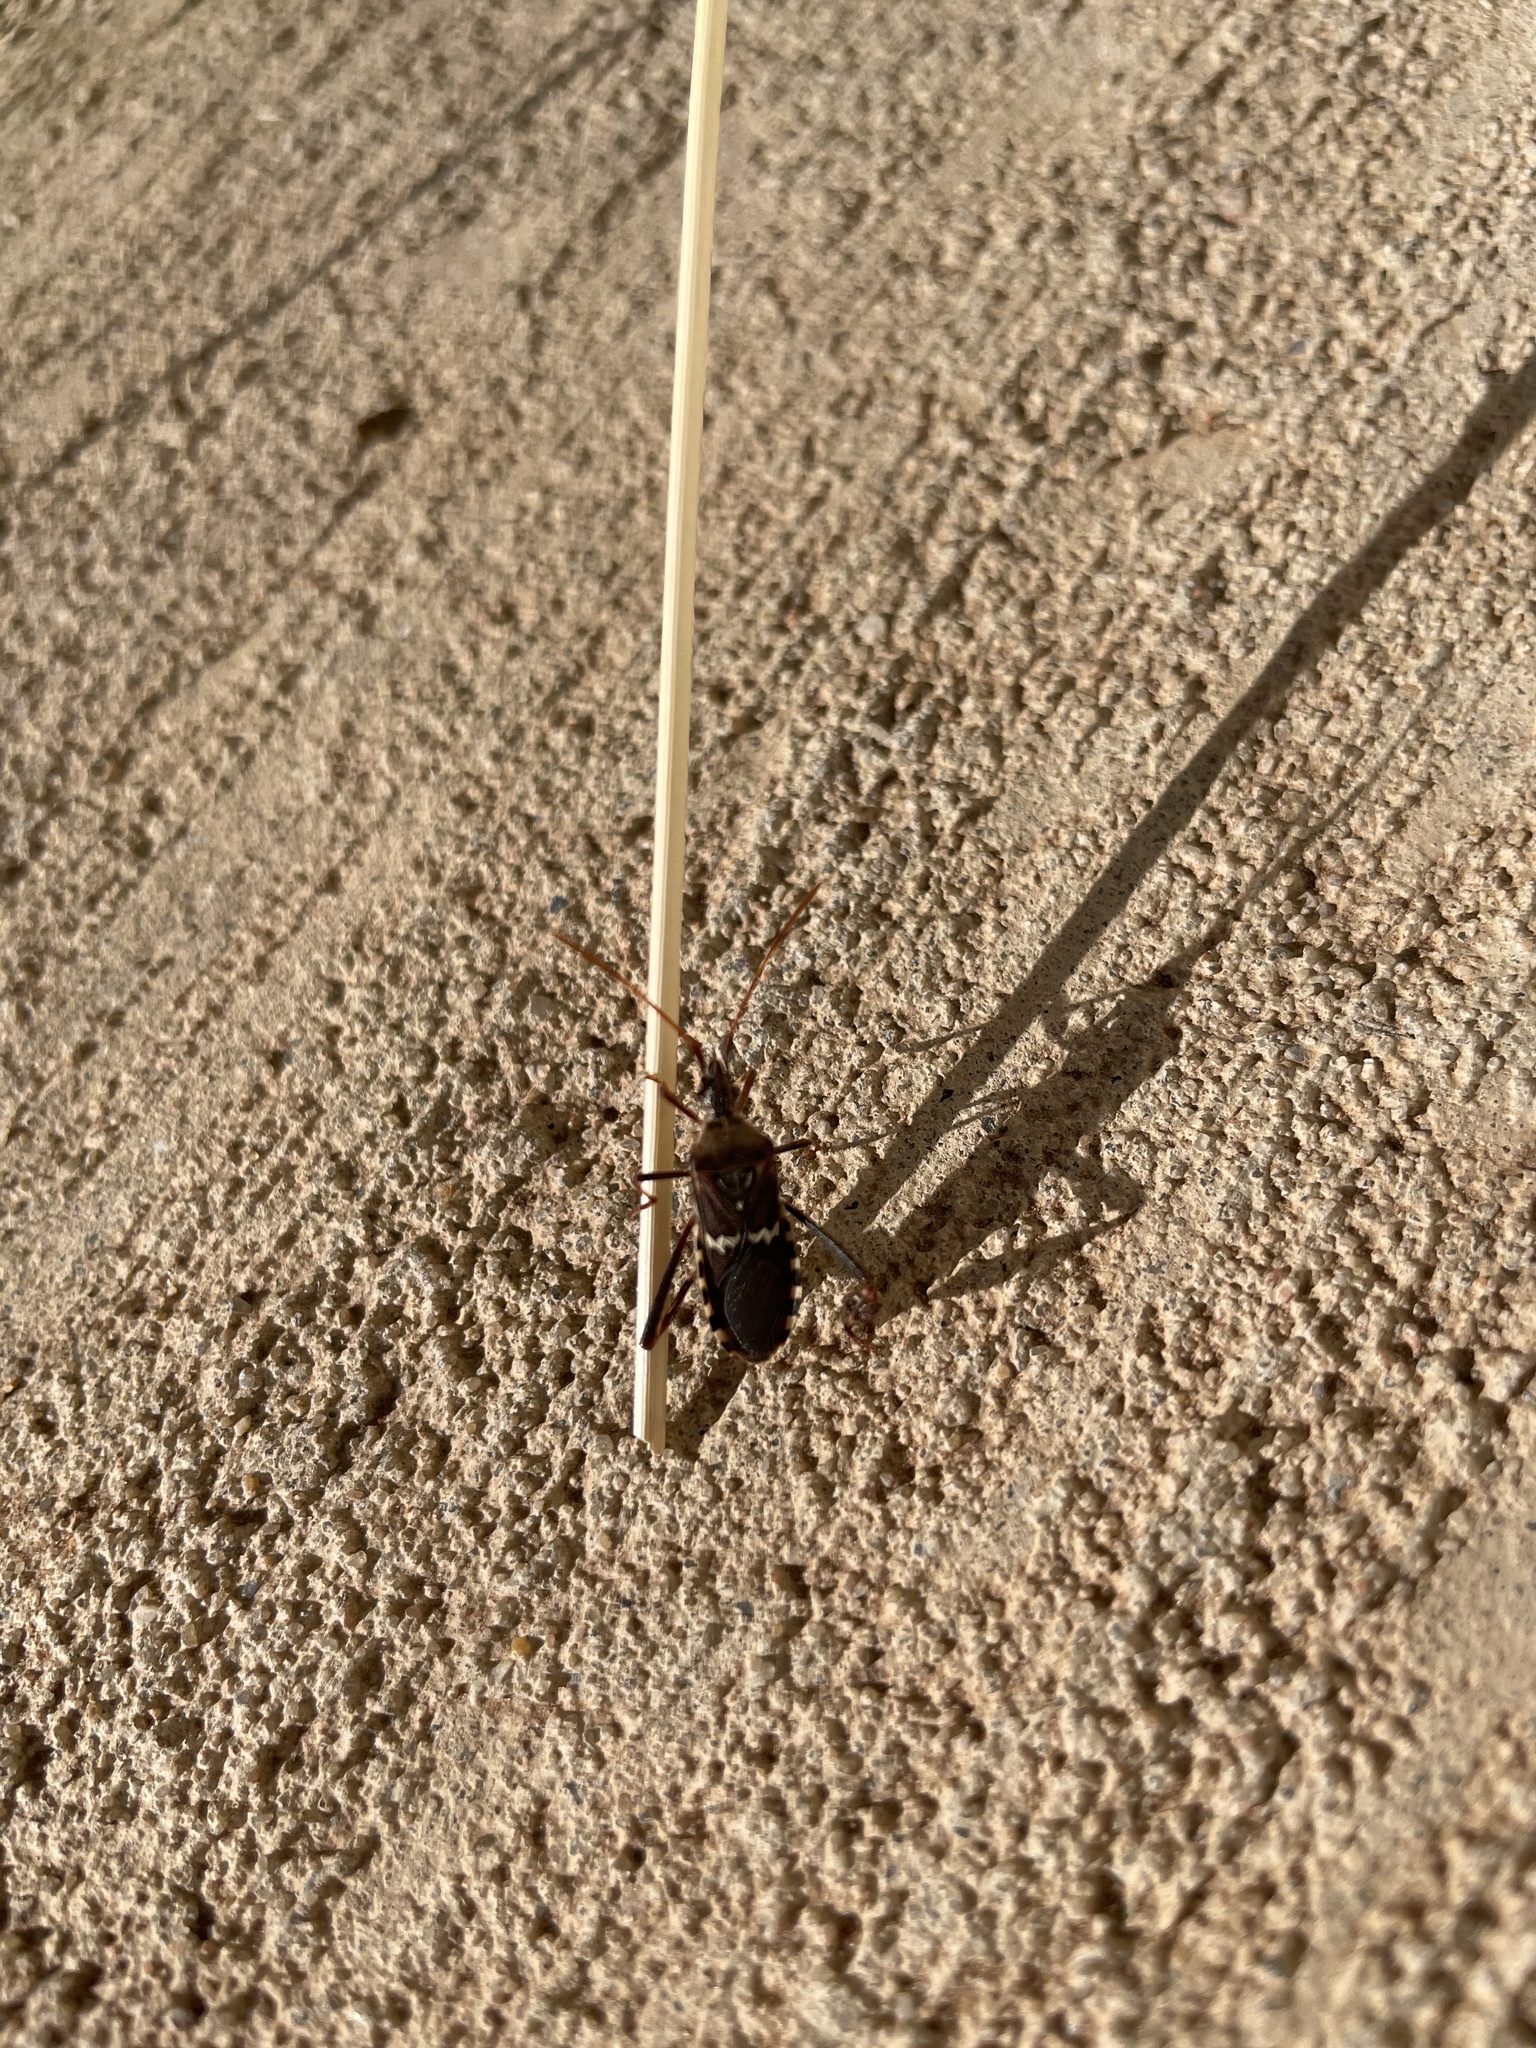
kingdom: Animalia
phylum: Arthropoda
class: Insecta
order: Hemiptera
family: Coreidae
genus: Leptoglossus
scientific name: Leptoglossus clypealis
